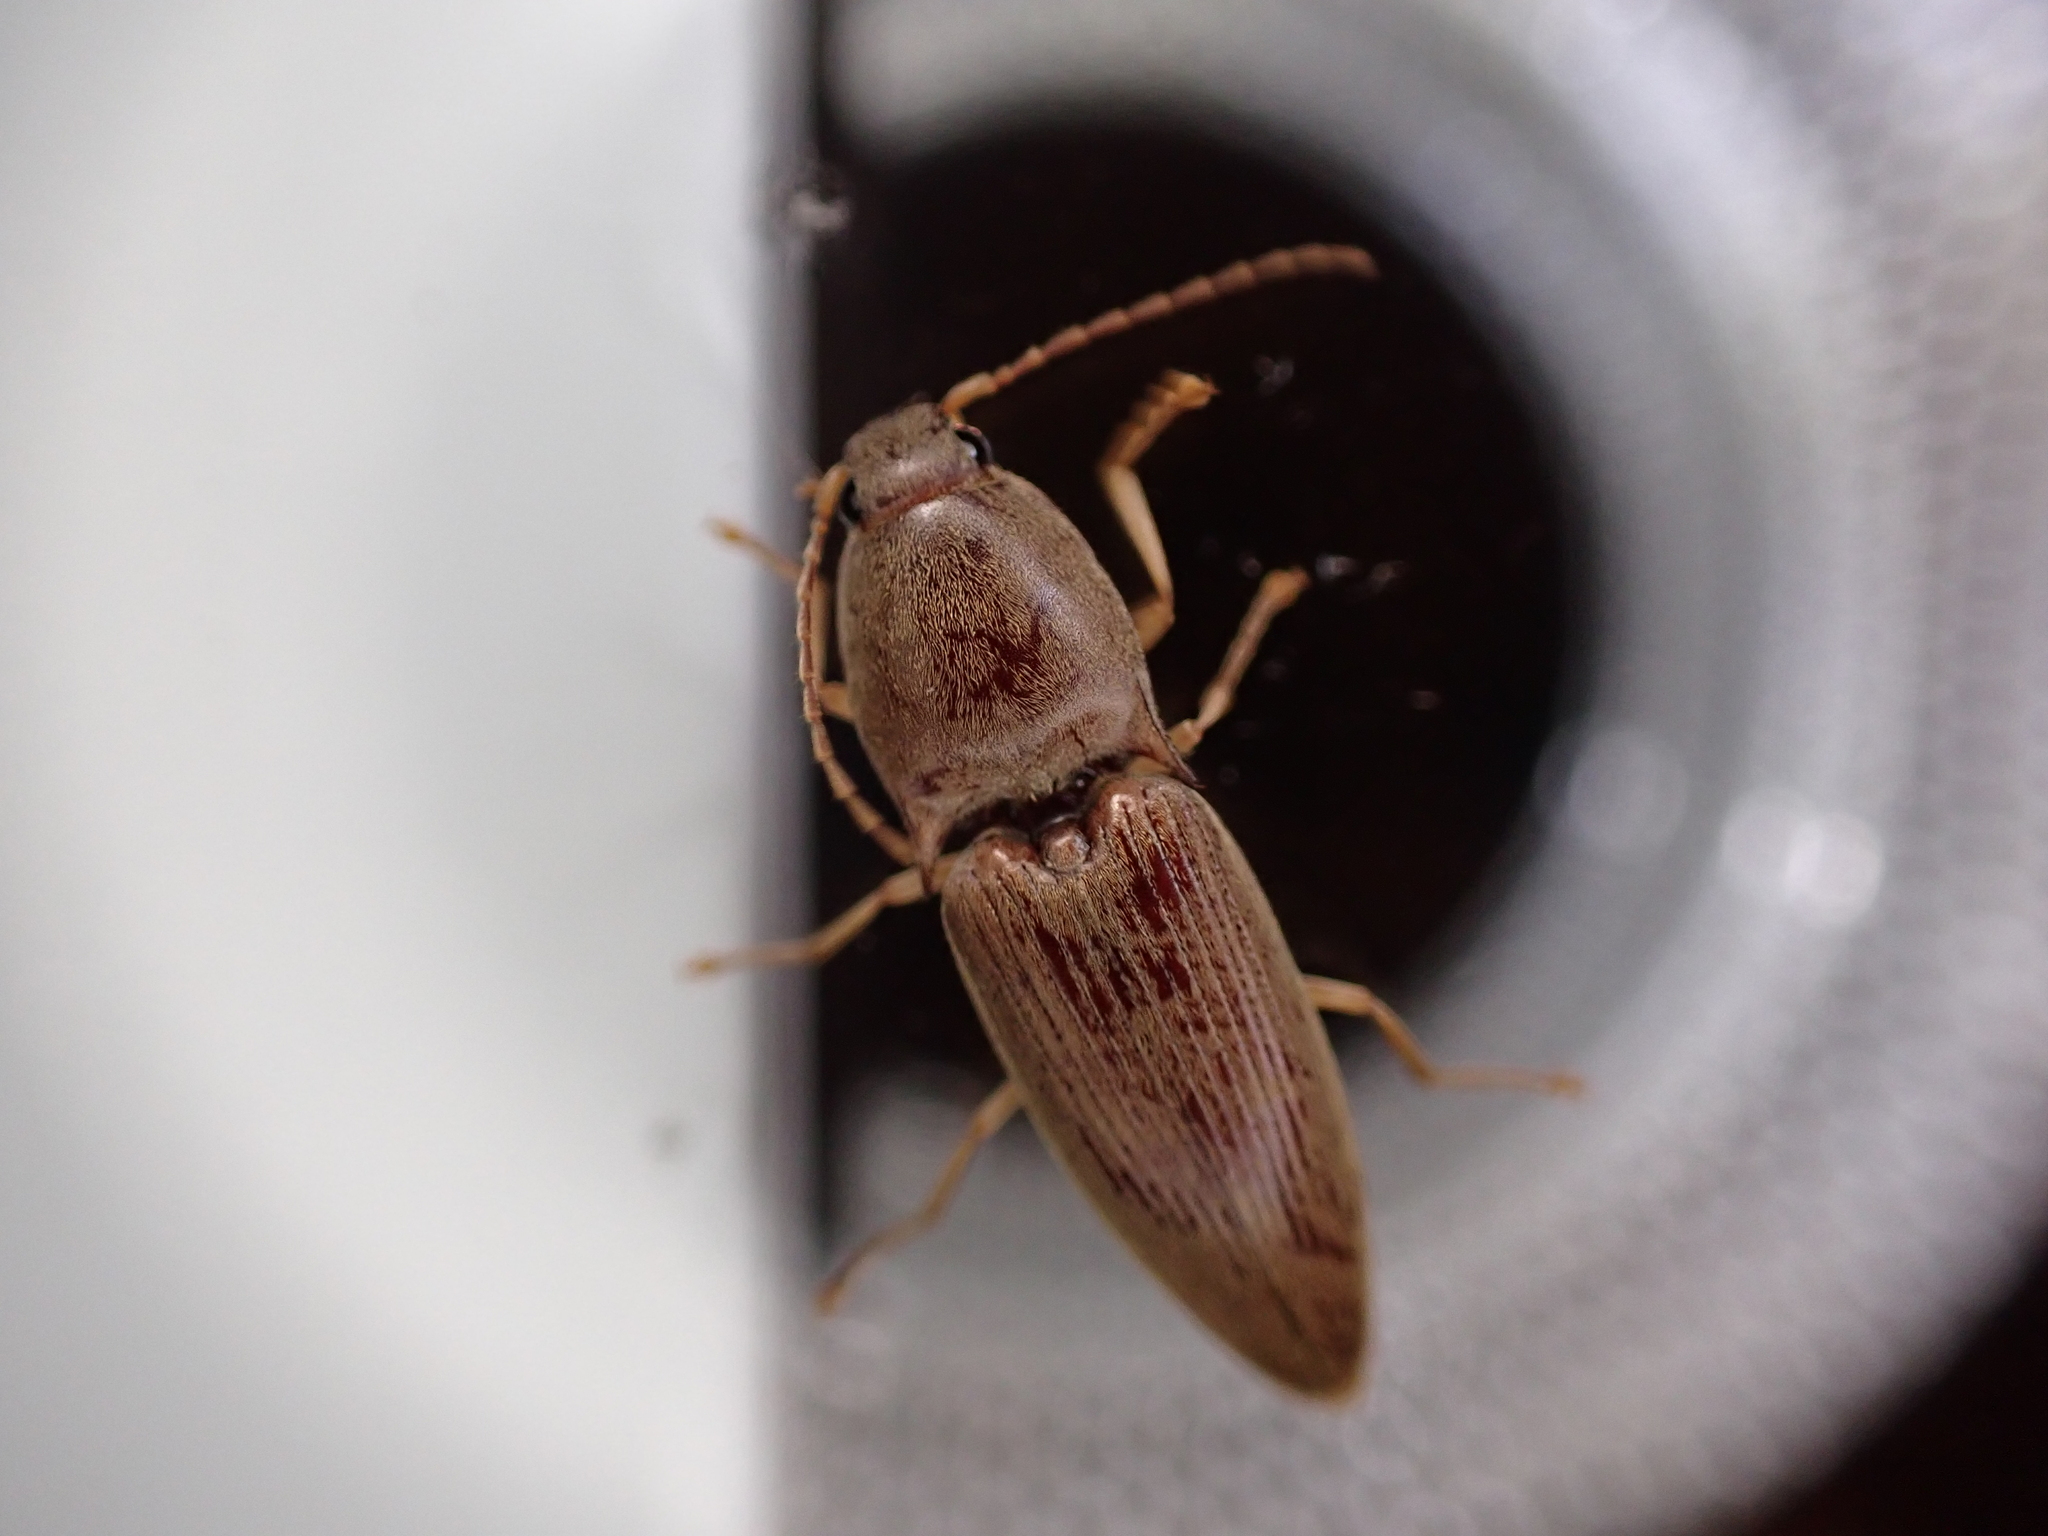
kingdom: Animalia
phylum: Arthropoda
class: Insecta
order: Coleoptera
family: Elateridae
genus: Monocrepidius
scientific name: Monocrepidius lividus
